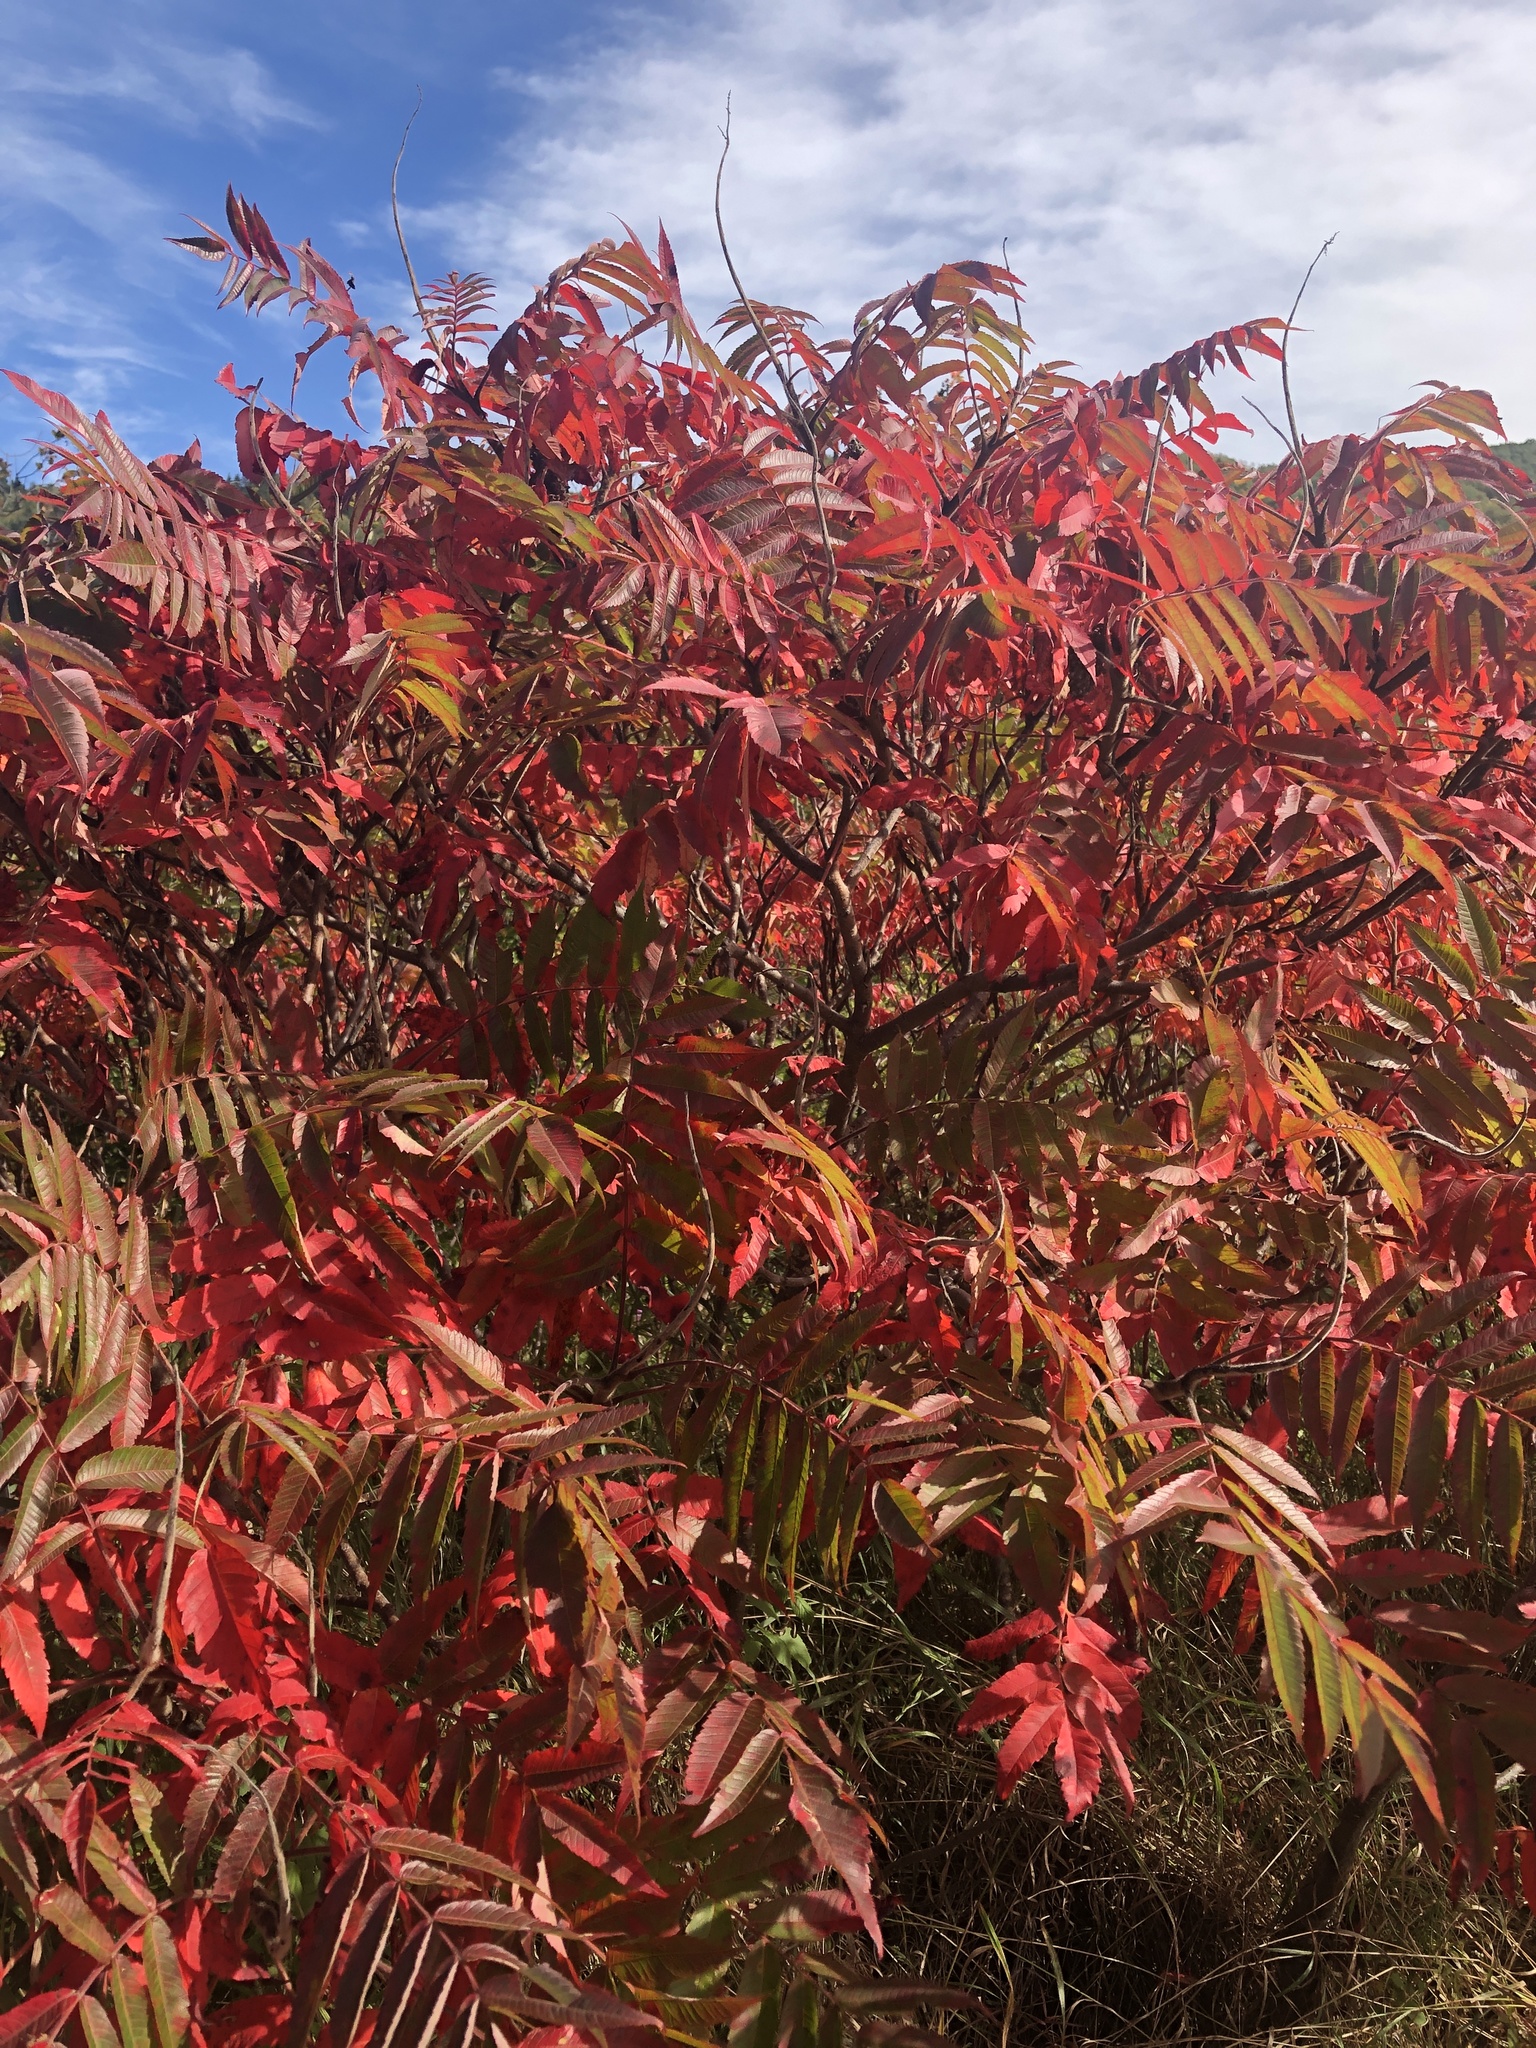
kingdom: Plantae
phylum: Tracheophyta
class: Magnoliopsida
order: Sapindales
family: Anacardiaceae
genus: Rhus
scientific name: Rhus typhina
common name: Staghorn sumac
